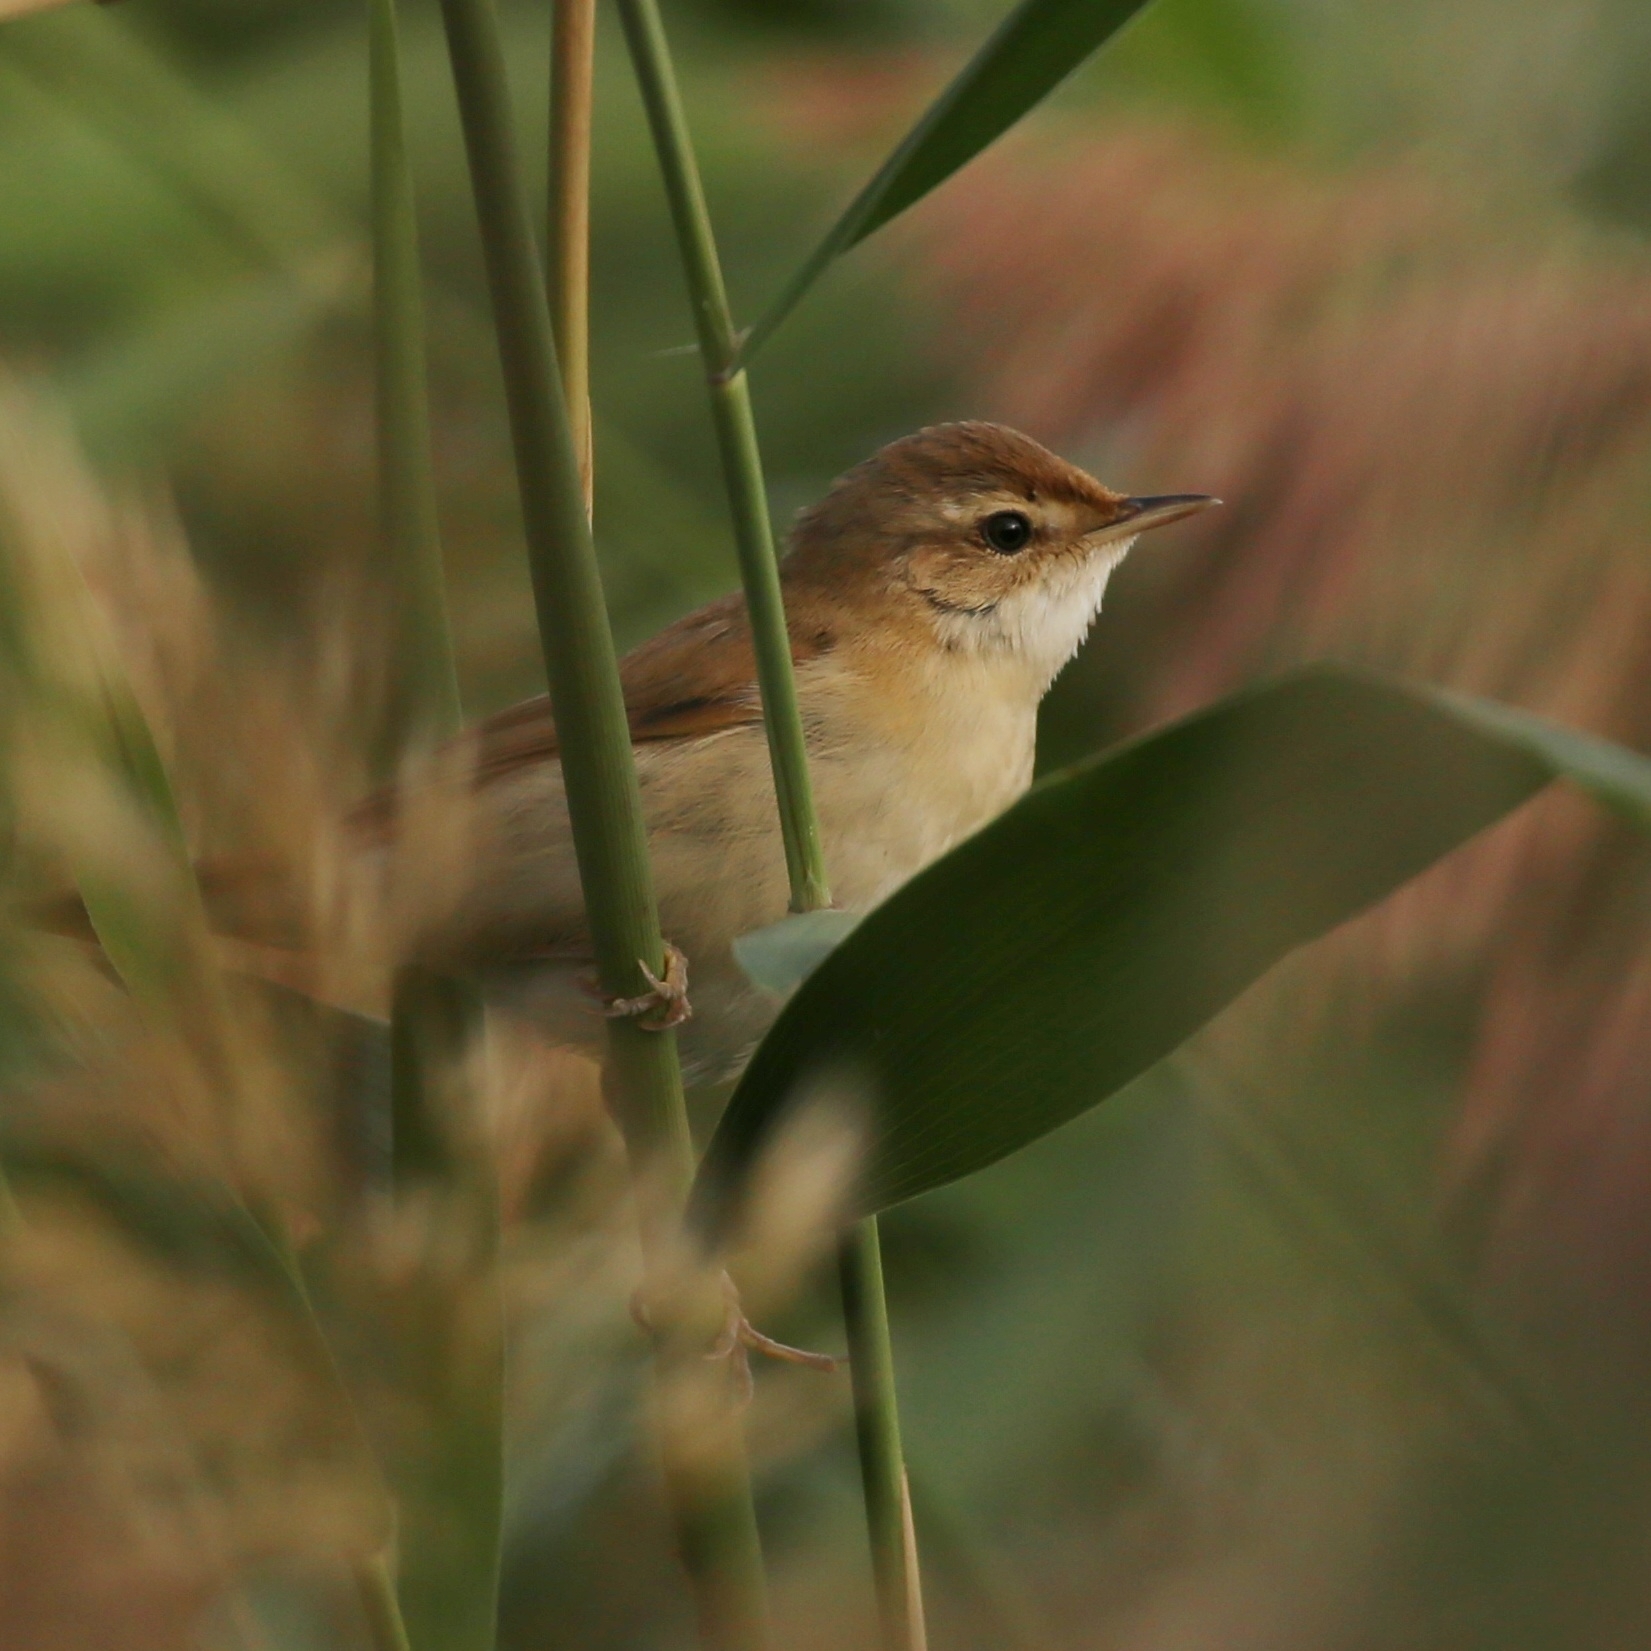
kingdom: Animalia
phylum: Chordata
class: Aves
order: Passeriformes
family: Acrocephalidae
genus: Acrocephalus
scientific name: Acrocephalus agricola
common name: Paddyfield warbler
